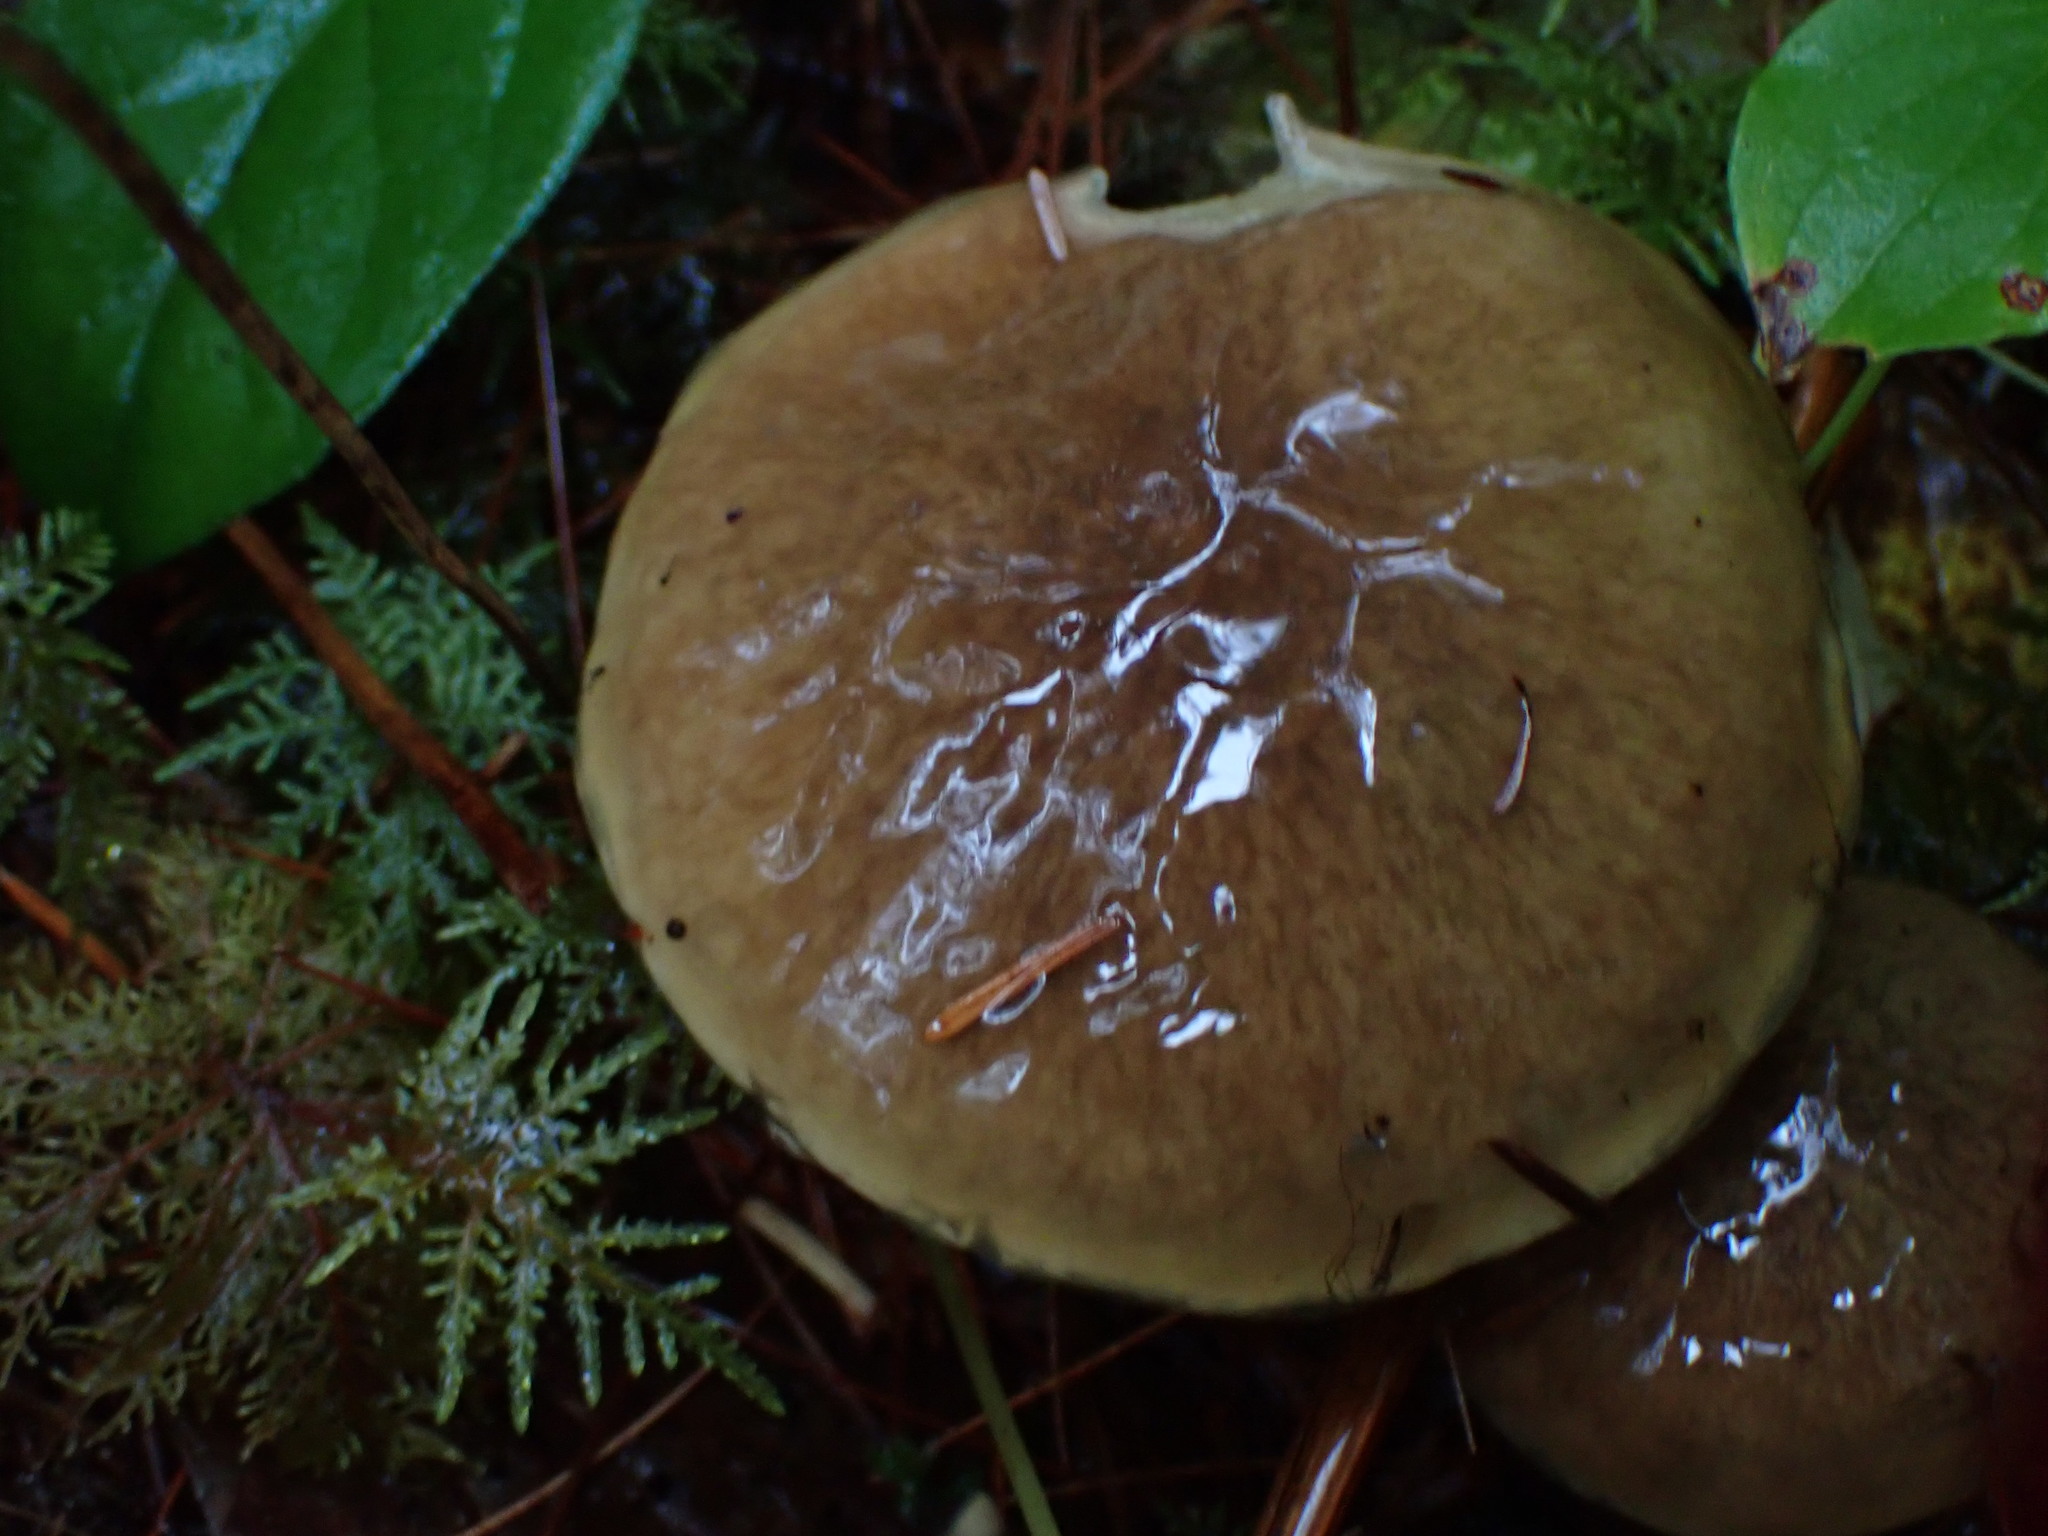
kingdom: Fungi
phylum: Basidiomycota
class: Agaricomycetes
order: Boletales
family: Suillaceae
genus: Suillus
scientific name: Suillus luteus
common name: Slippery jack
